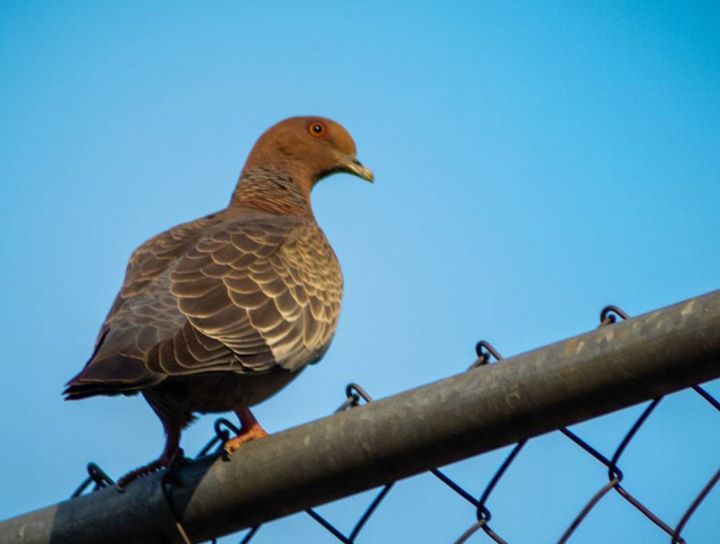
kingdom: Animalia
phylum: Chordata
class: Aves
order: Columbiformes
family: Columbidae
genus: Patagioenas
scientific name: Patagioenas picazuro
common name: Picazuro pigeon
